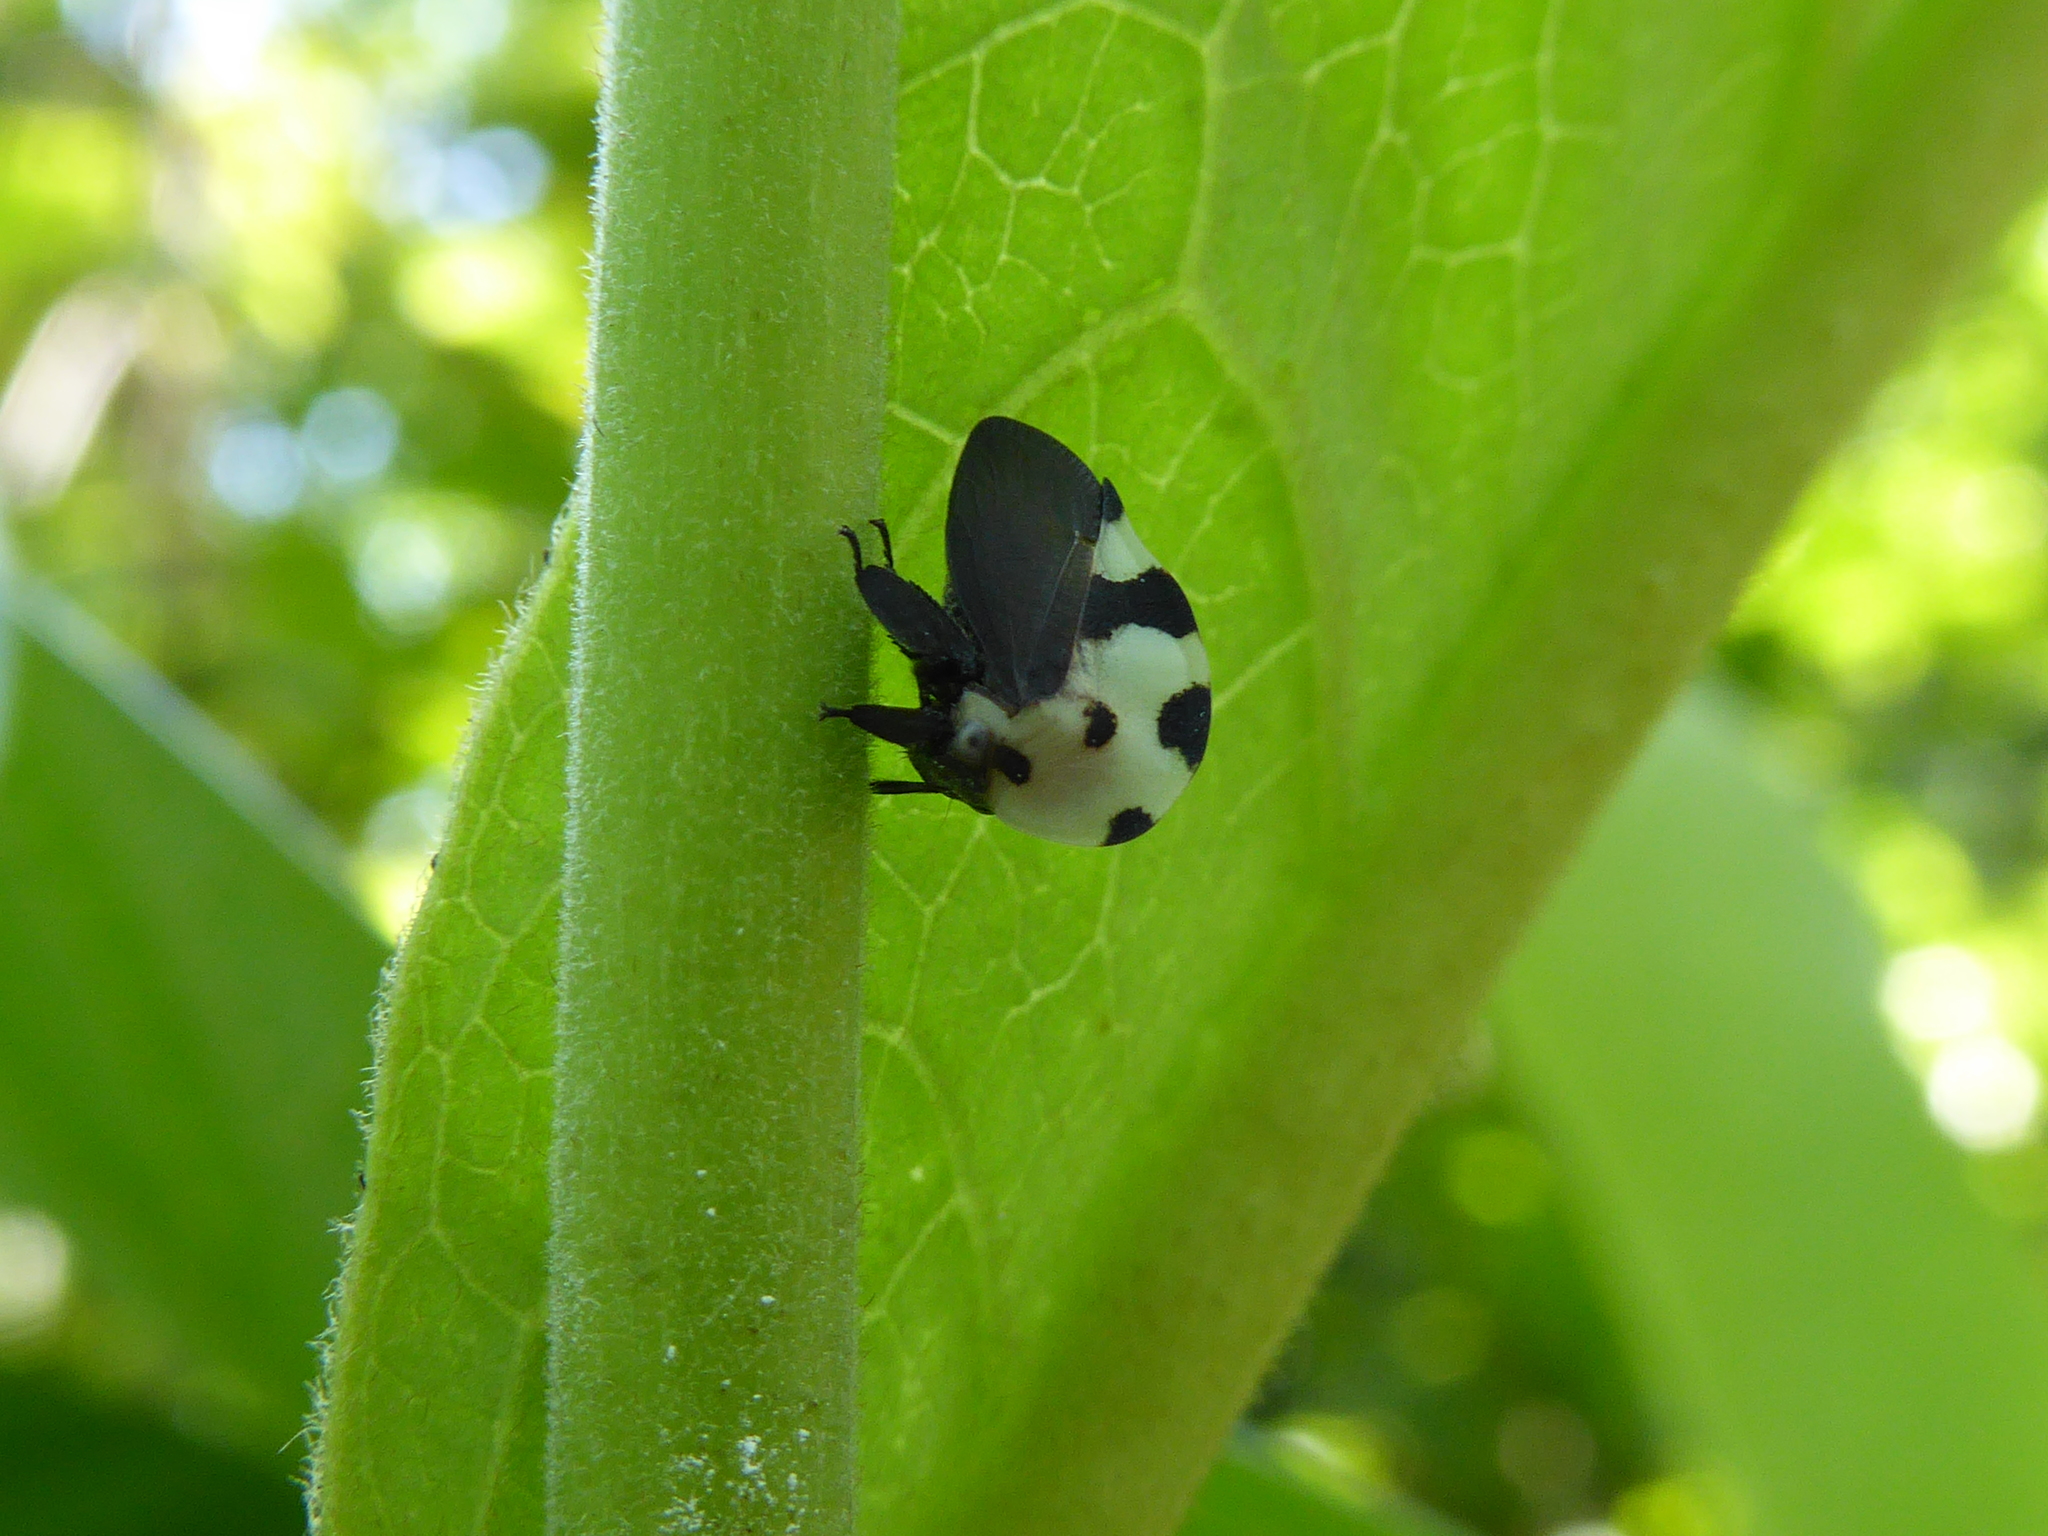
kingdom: Animalia
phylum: Arthropoda
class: Insecta
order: Hemiptera
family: Membracidae
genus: Membracis
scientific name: Membracis mexicana
